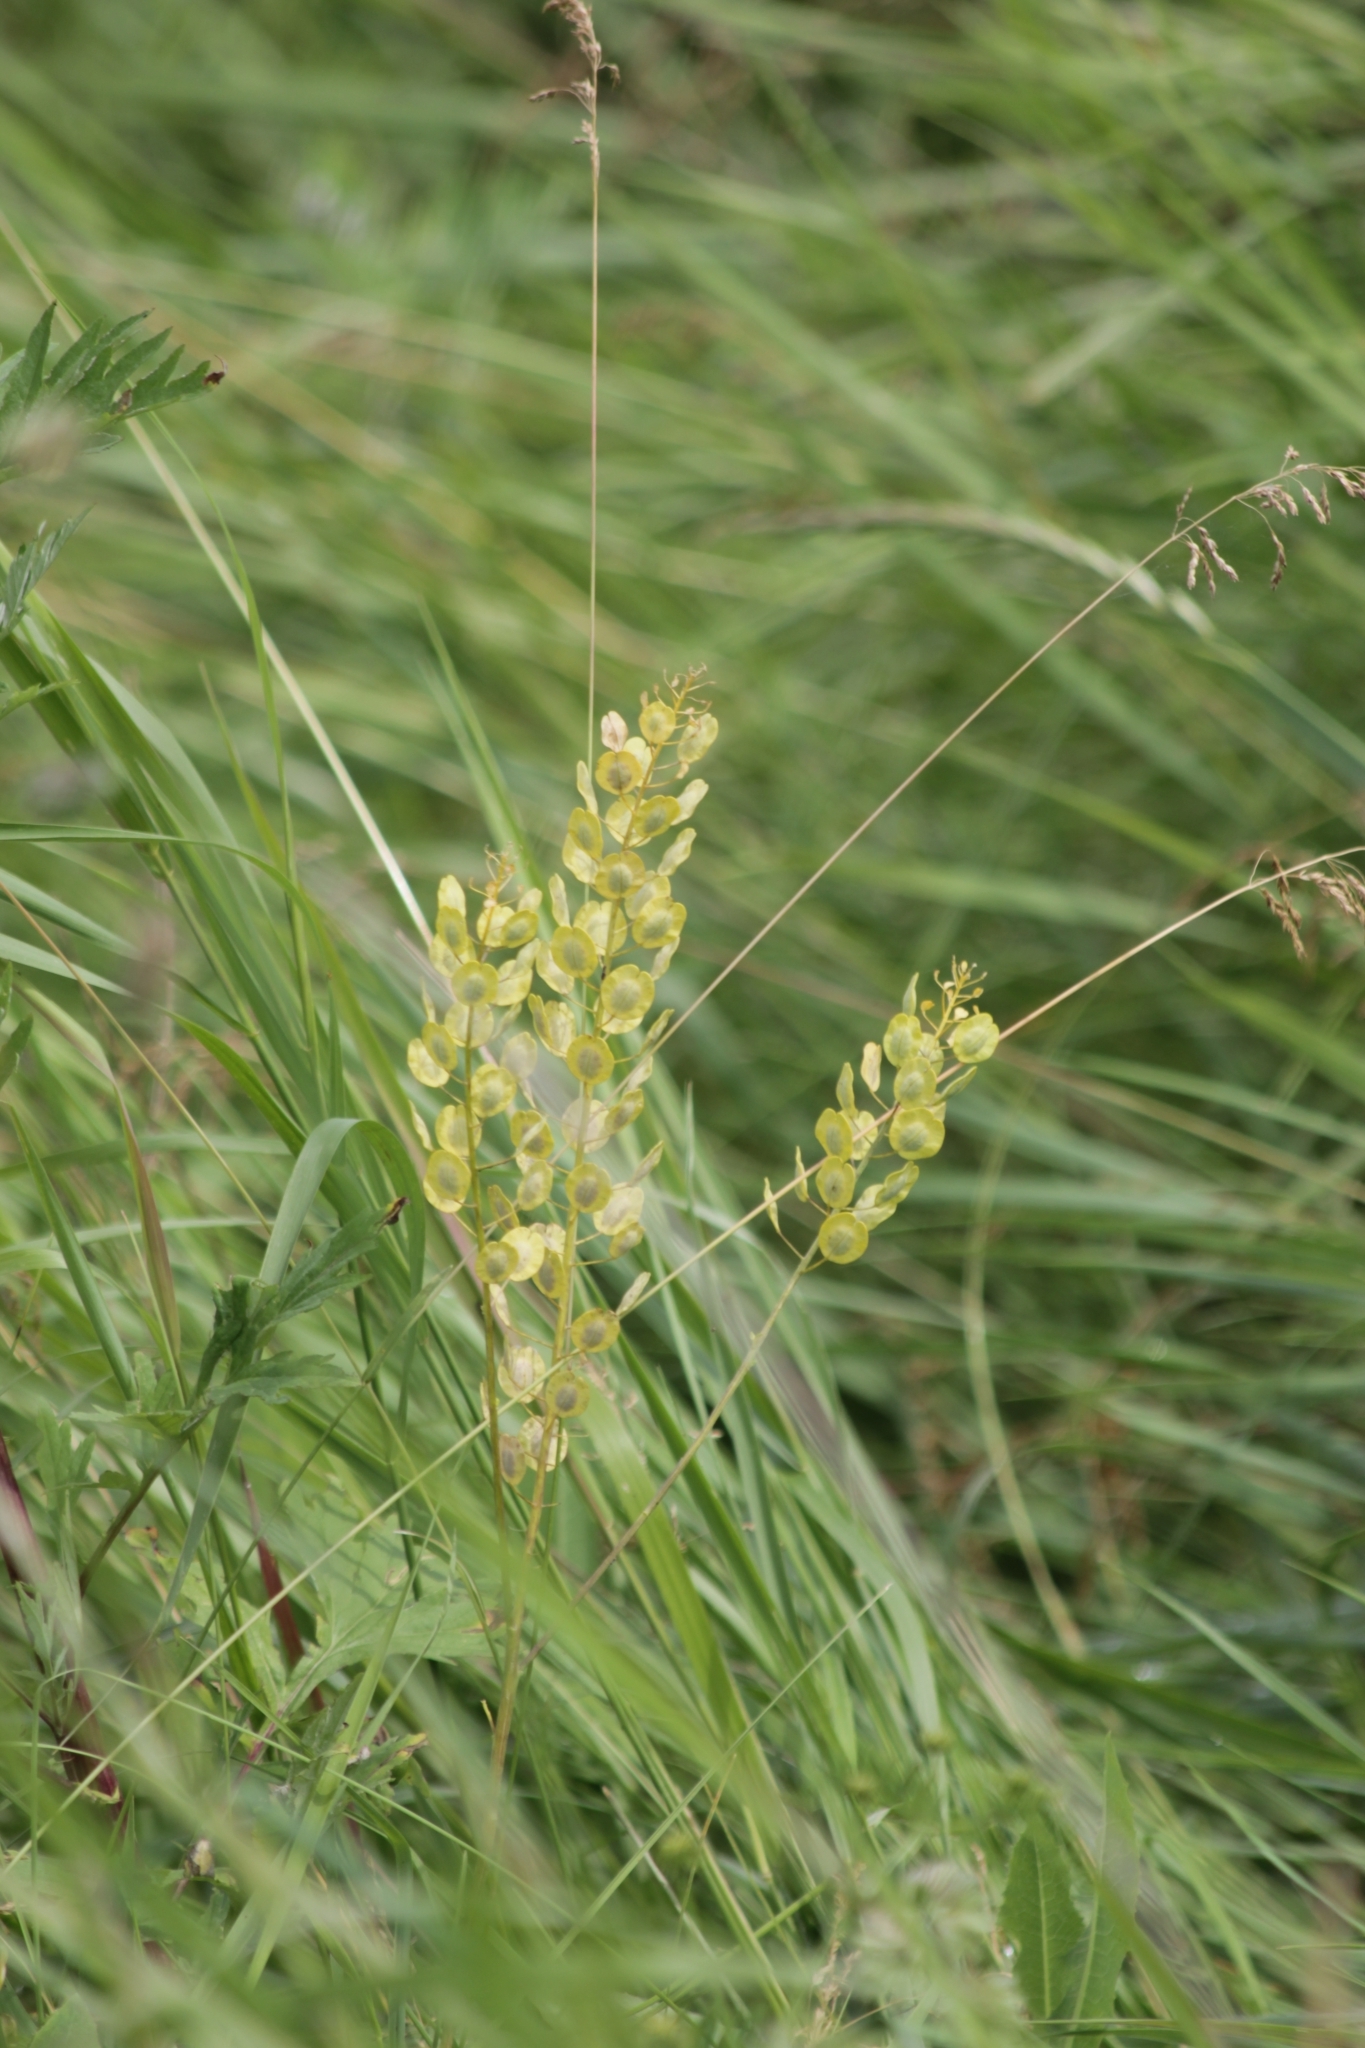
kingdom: Plantae
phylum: Tracheophyta
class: Magnoliopsida
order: Brassicales
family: Brassicaceae
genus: Thlaspi
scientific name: Thlaspi arvense
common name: Field pennycress
